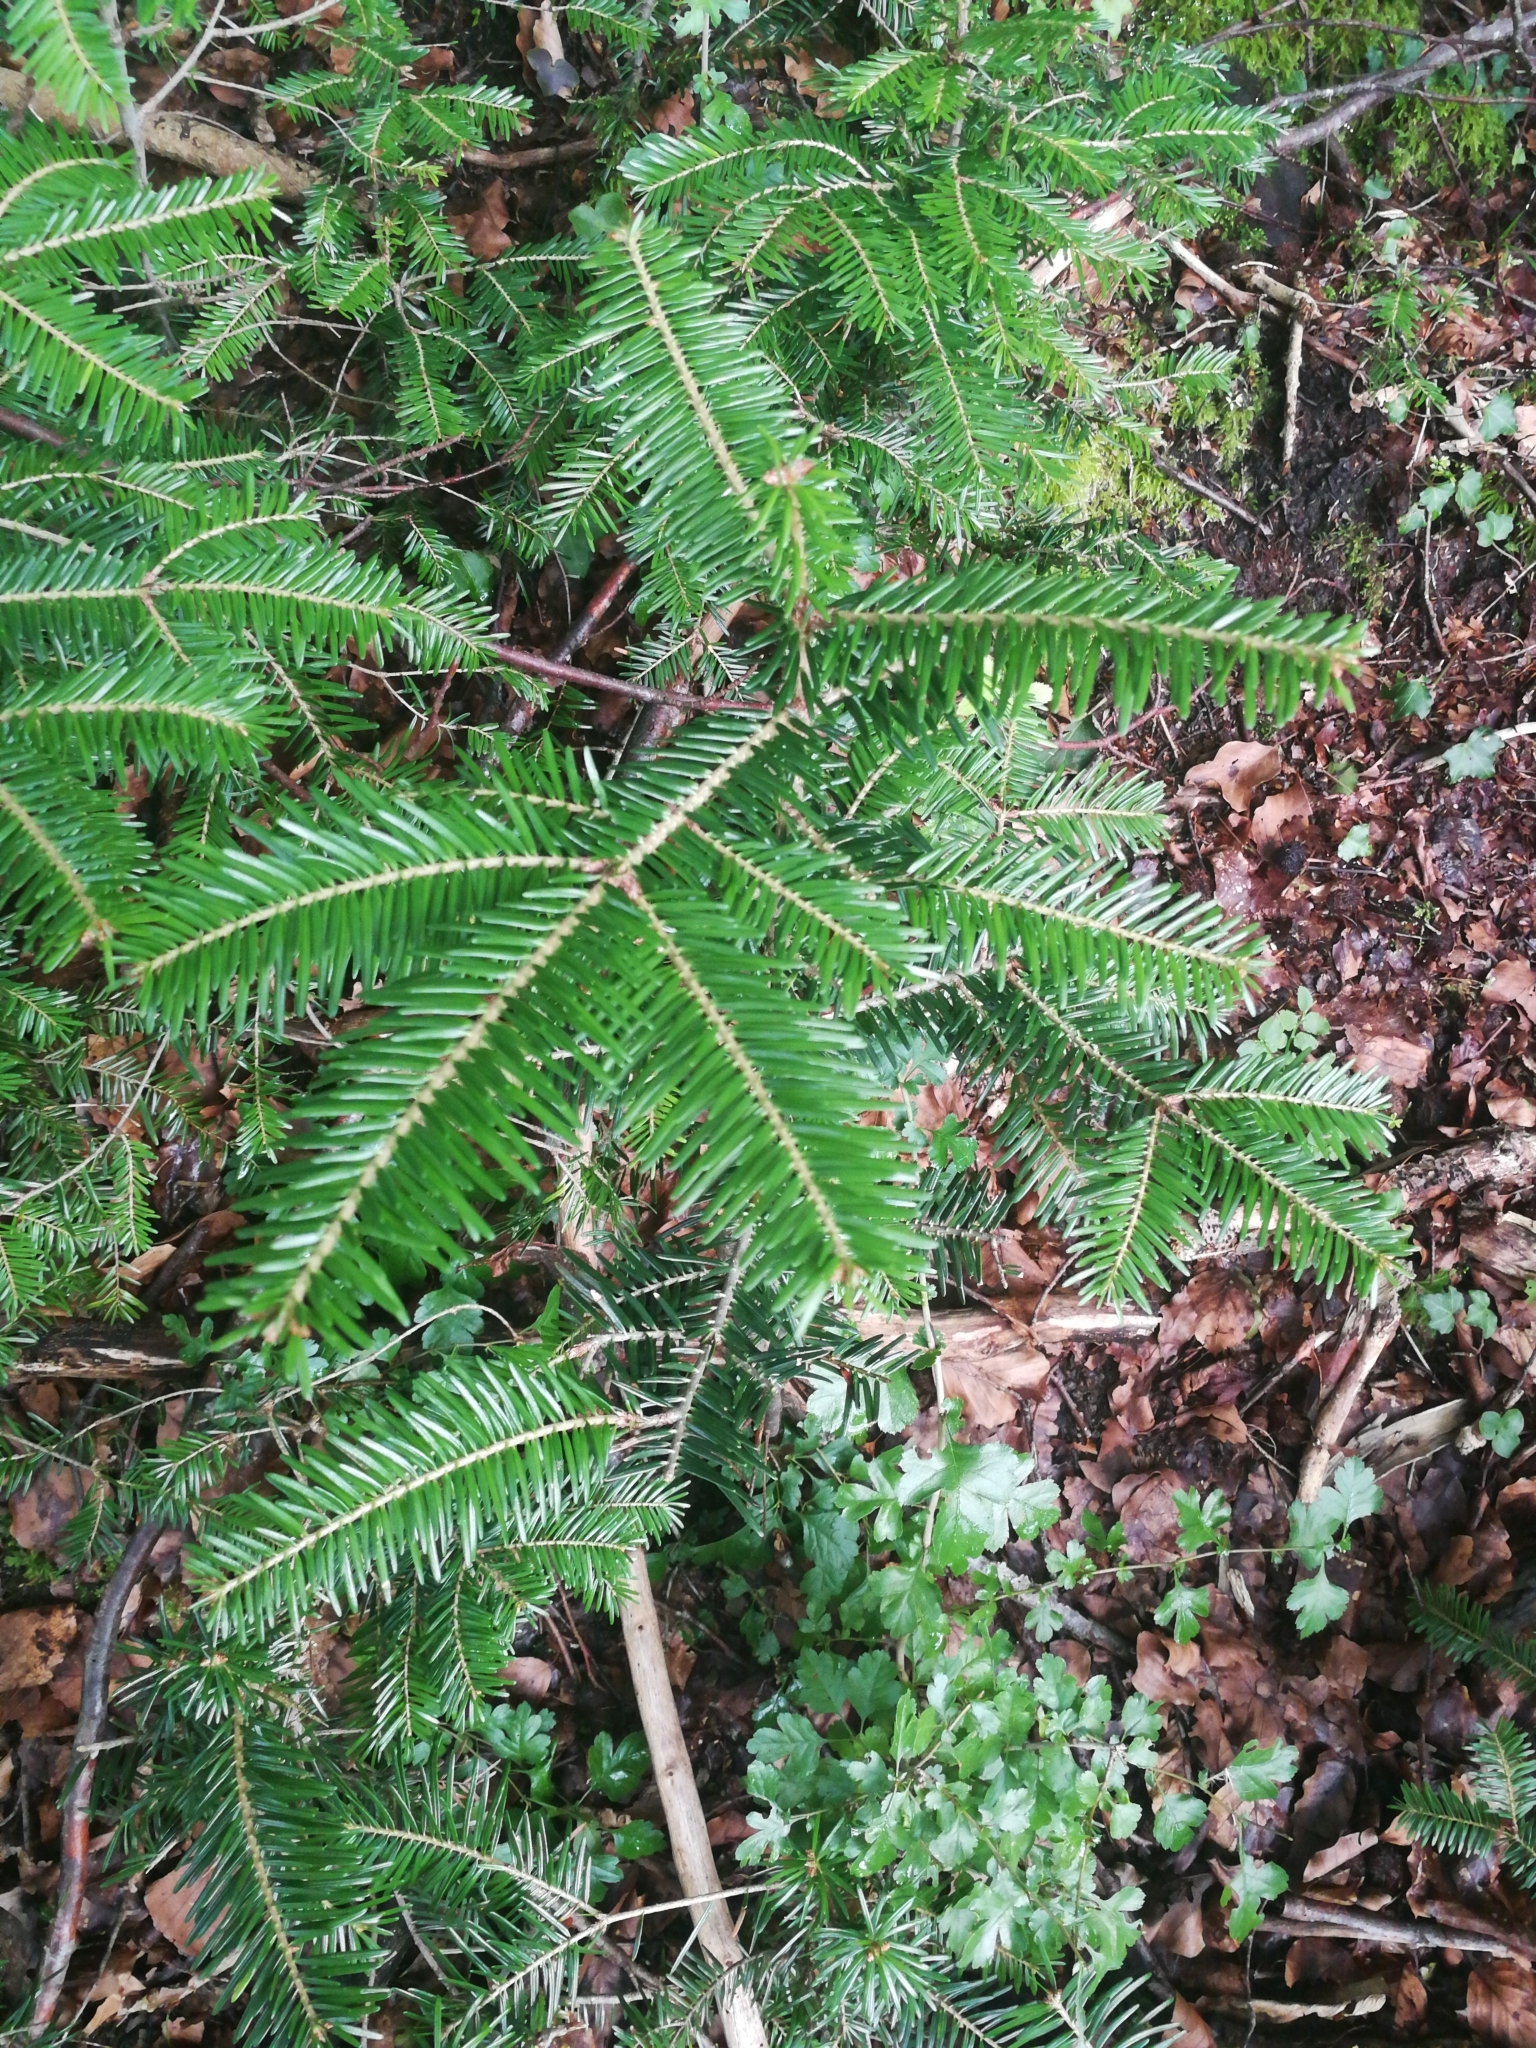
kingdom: Plantae
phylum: Tracheophyta
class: Pinopsida
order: Pinales
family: Pinaceae
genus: Abies
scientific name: Abies alba
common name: Silver fir
